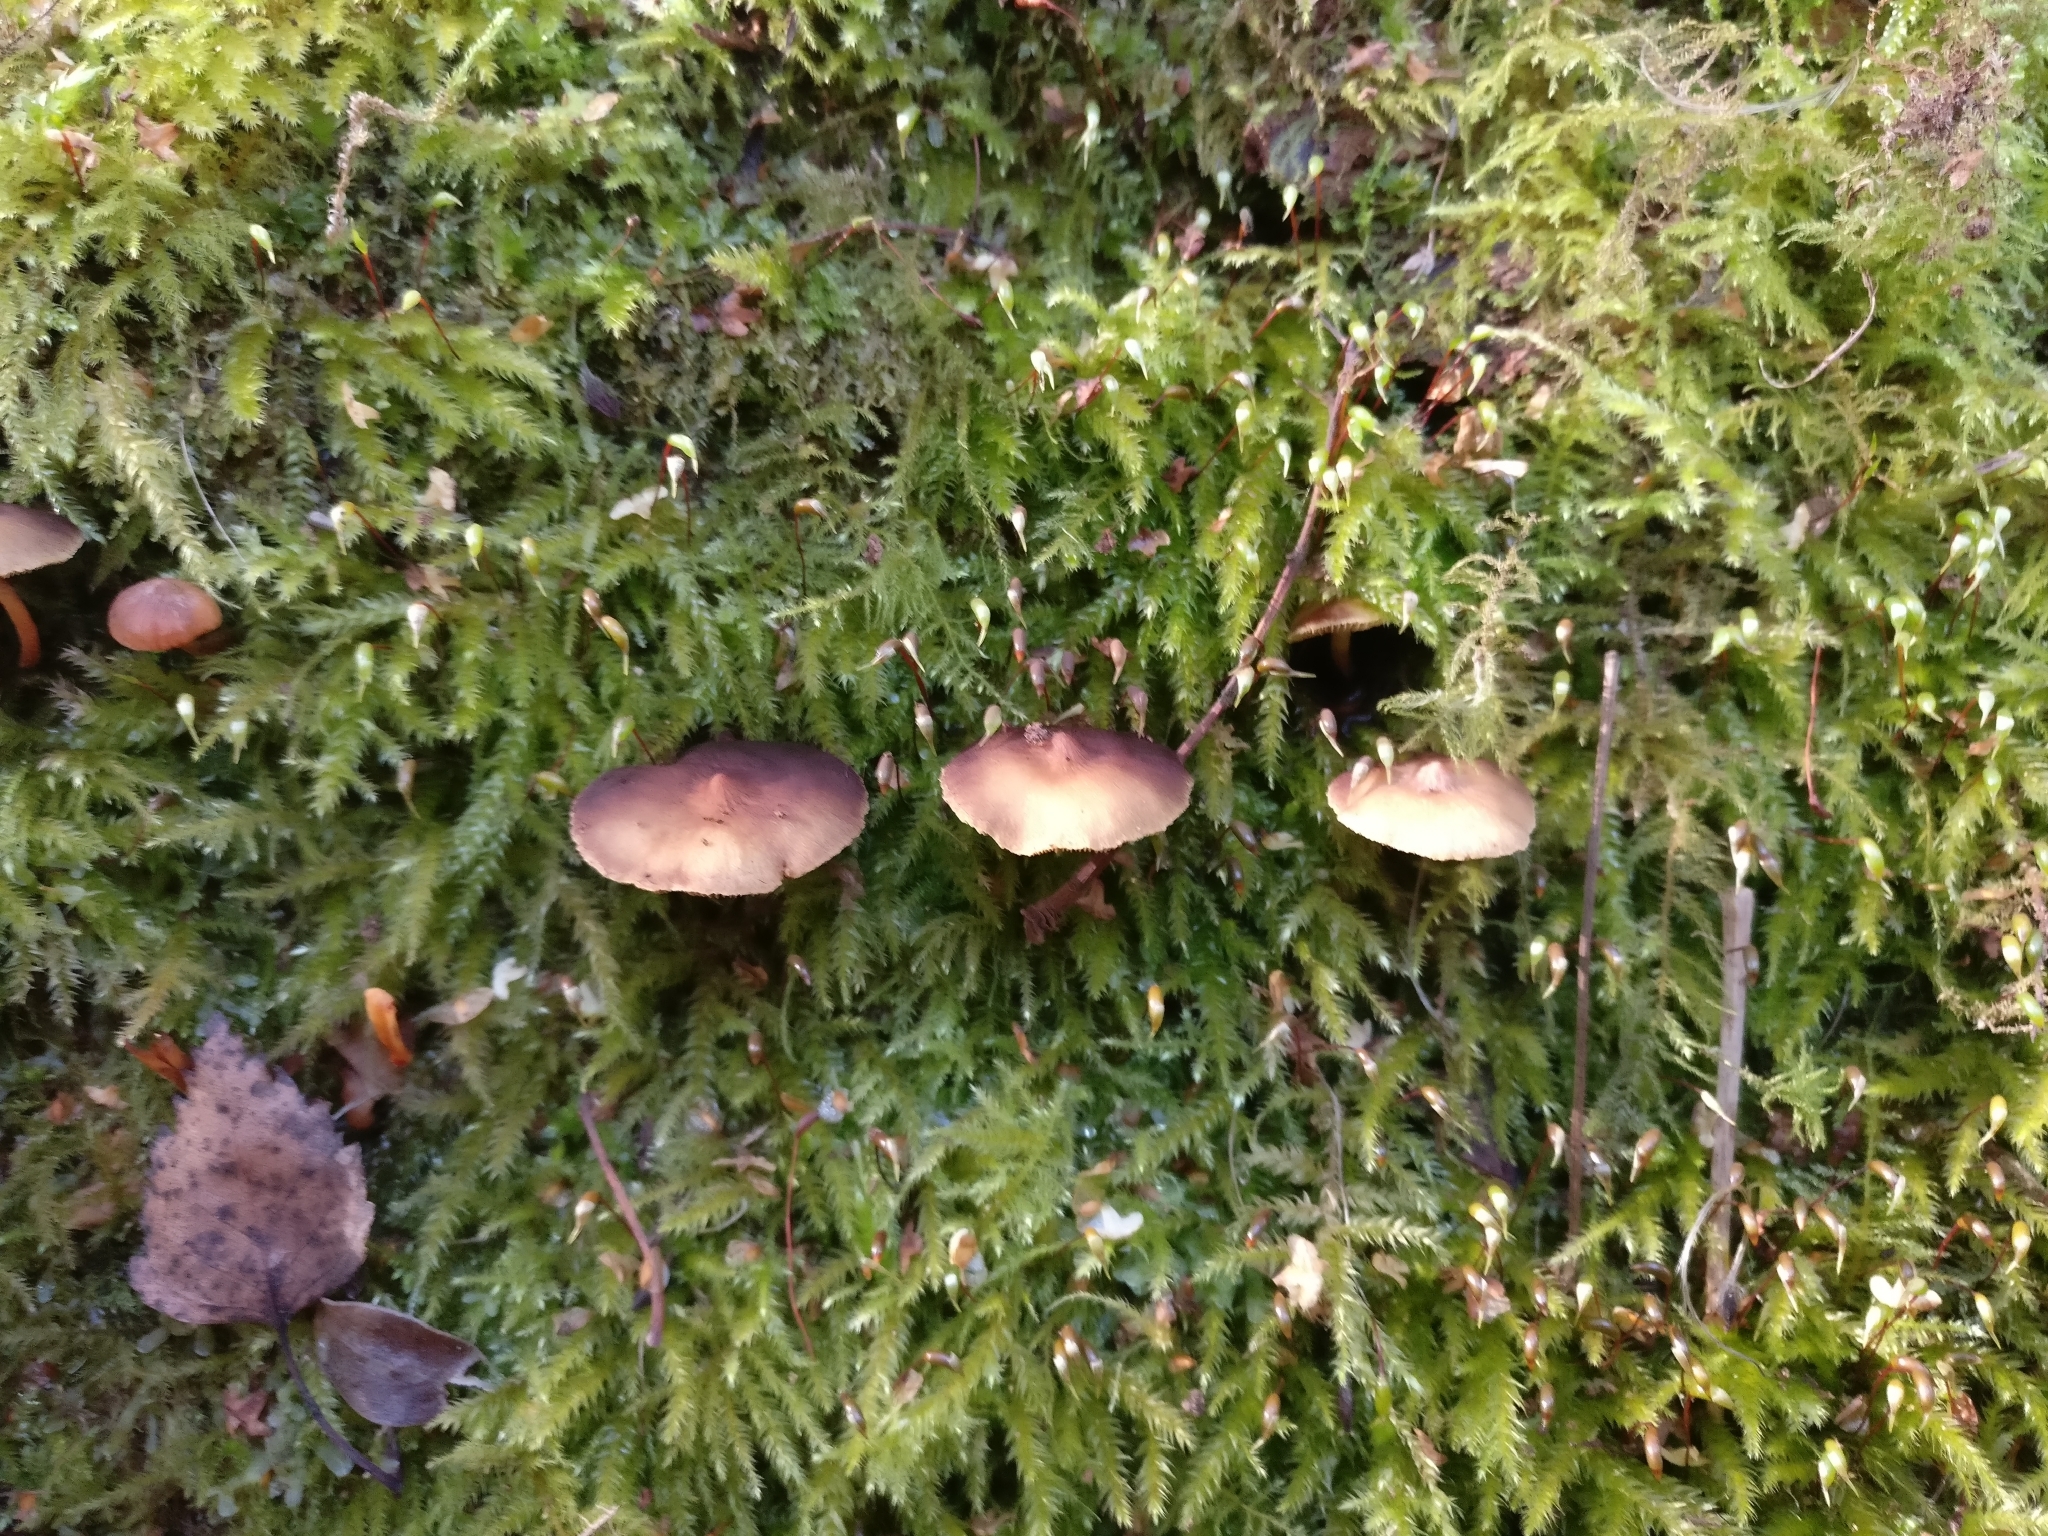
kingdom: Fungi
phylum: Basidiomycota
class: Agaricomycetes
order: Agaricales
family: Strophariaceae
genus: Hypholoma
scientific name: Hypholoma acutum
